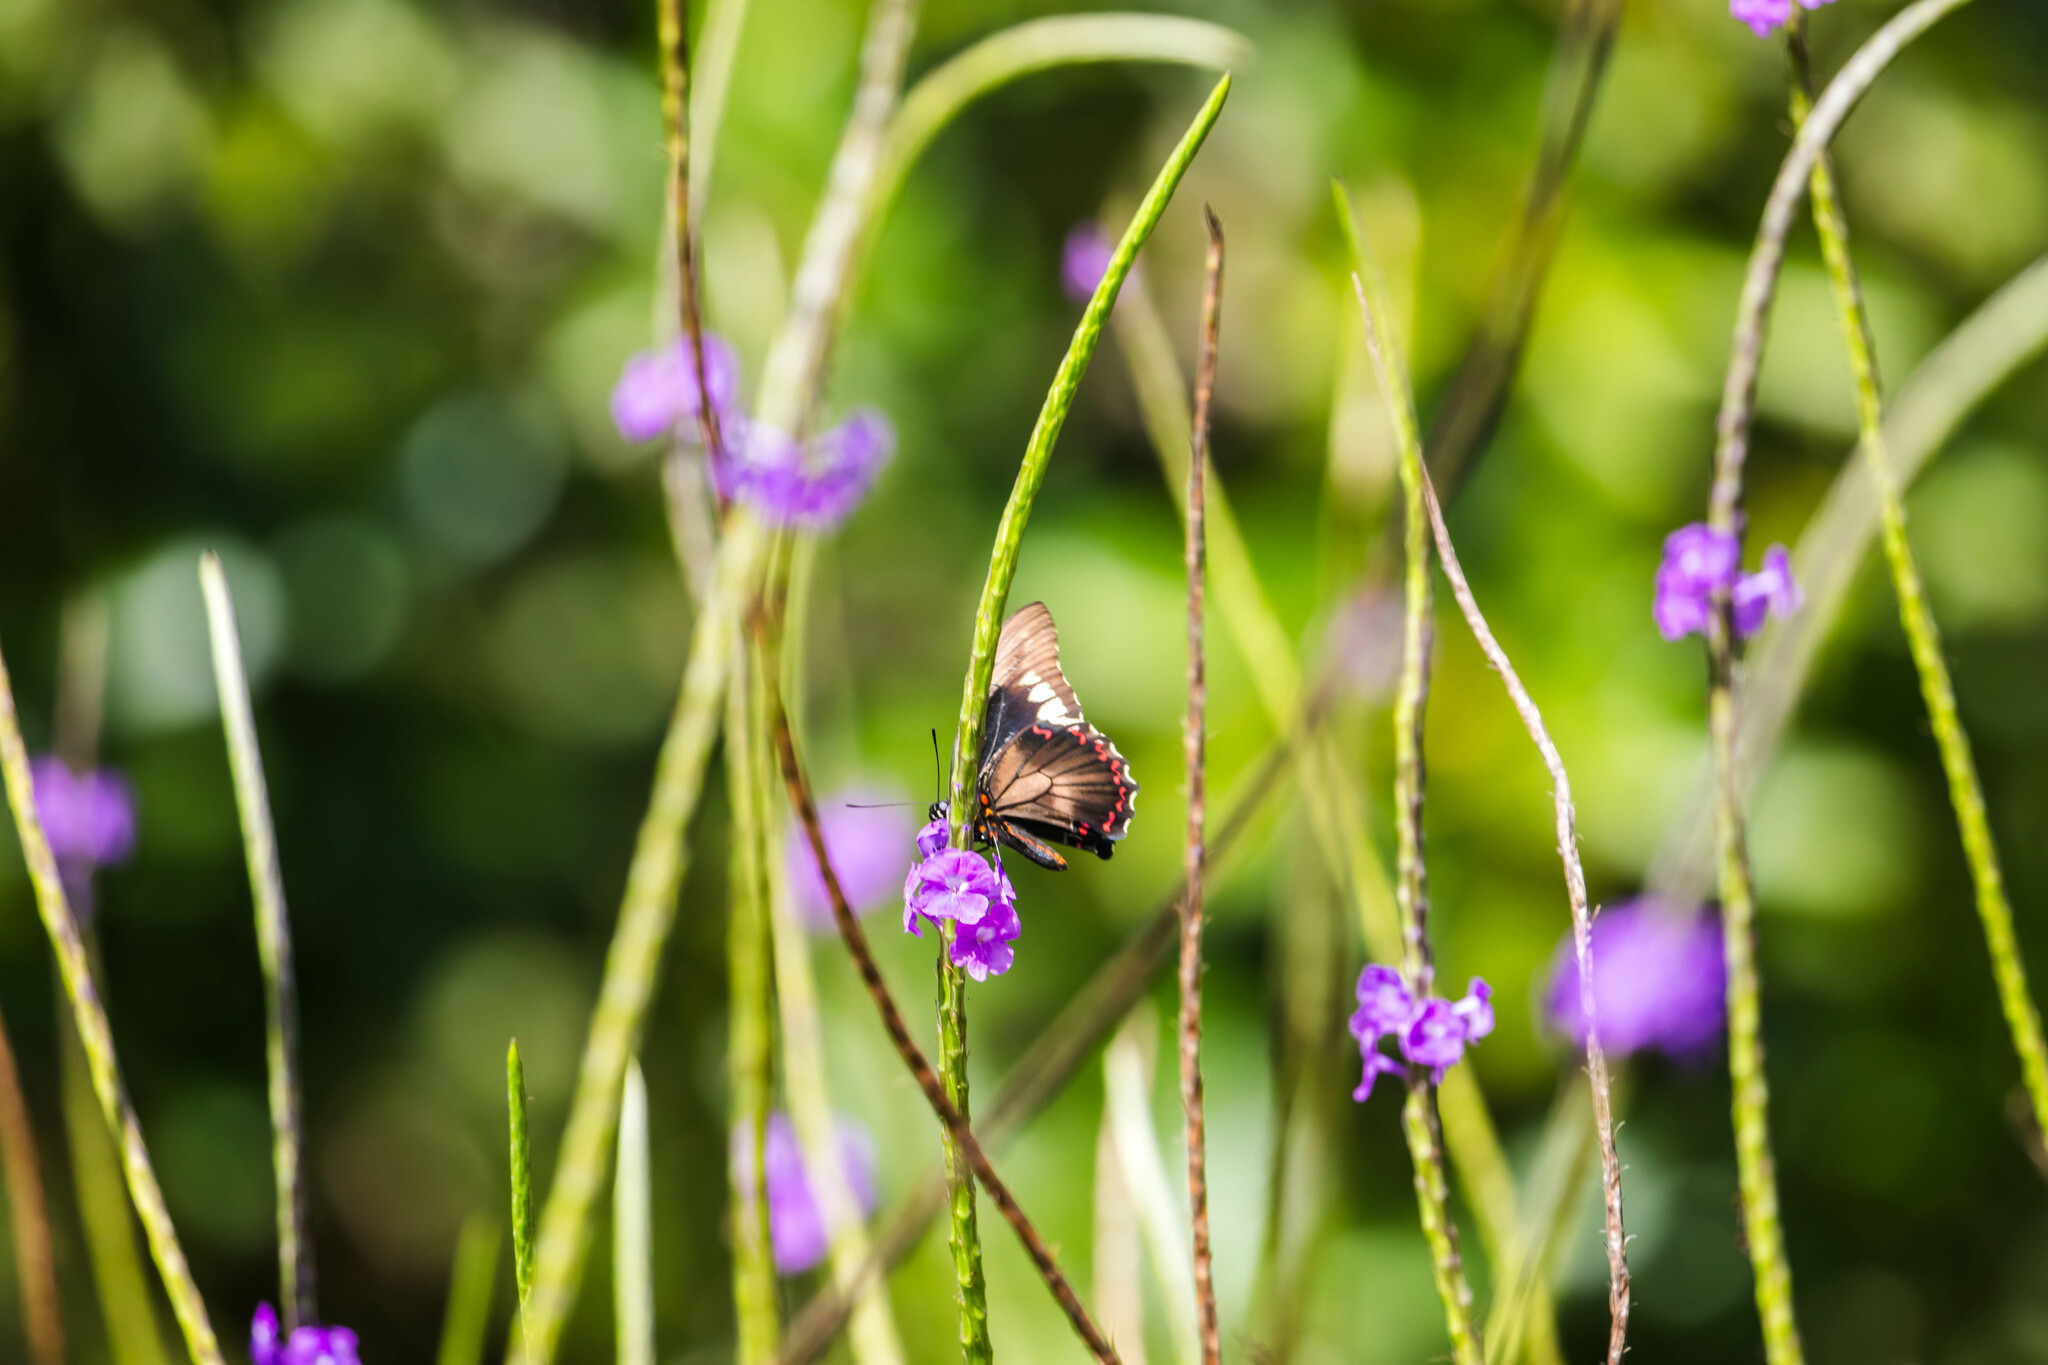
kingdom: Animalia
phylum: Arthropoda
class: Insecta
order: Lepidoptera
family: Papilionidae
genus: Battus
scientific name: Battus polydamas
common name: Polydamas swallowtail
